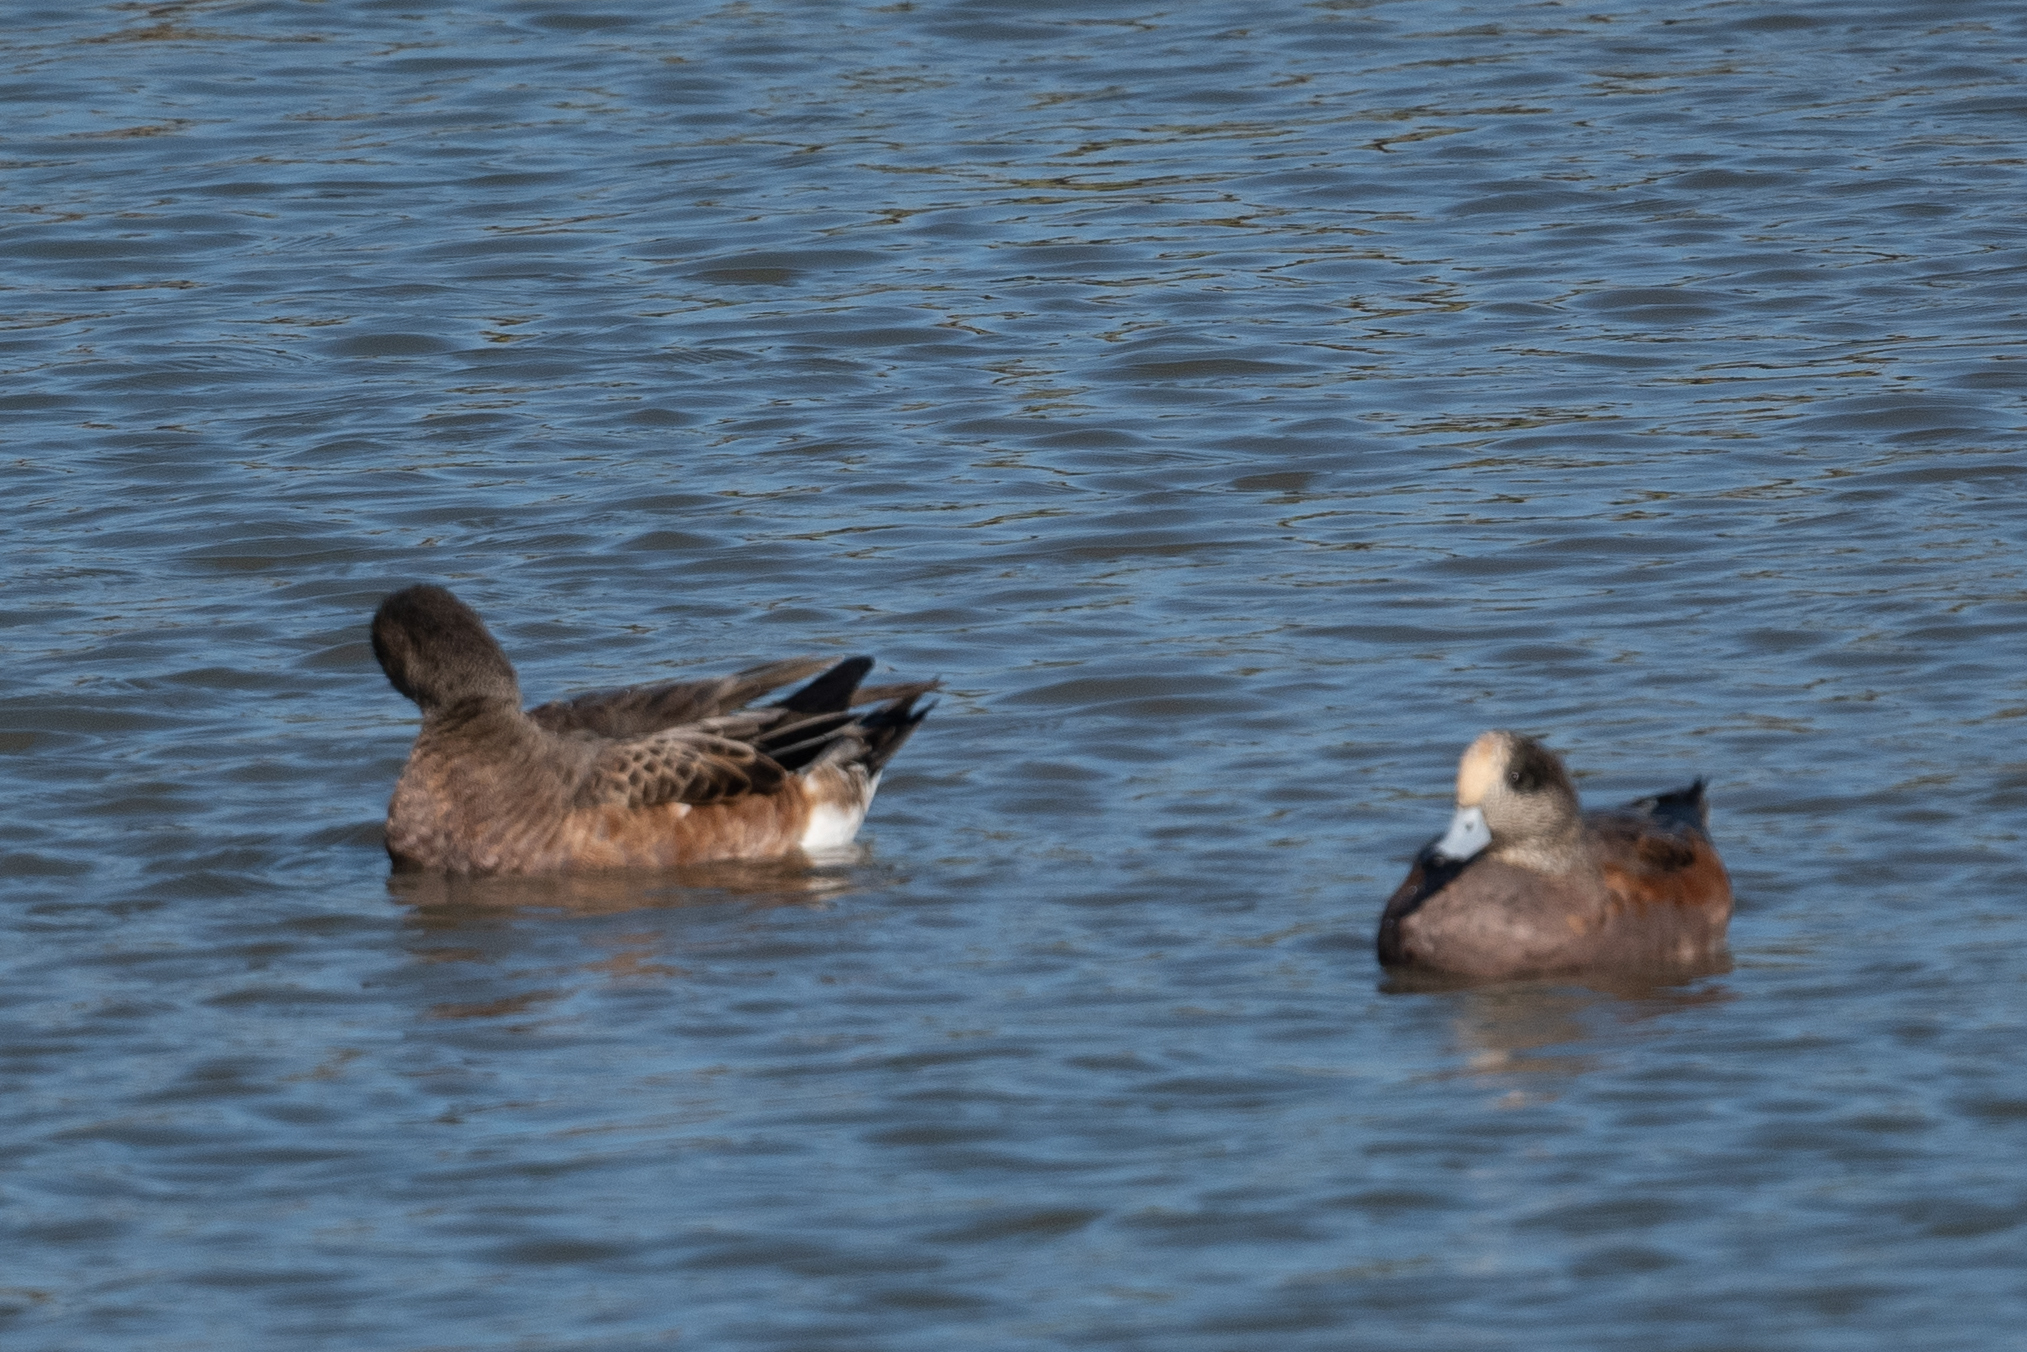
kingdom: Animalia
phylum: Chordata
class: Aves
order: Anseriformes
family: Anatidae
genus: Mareca
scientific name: Mareca americana
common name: American wigeon
